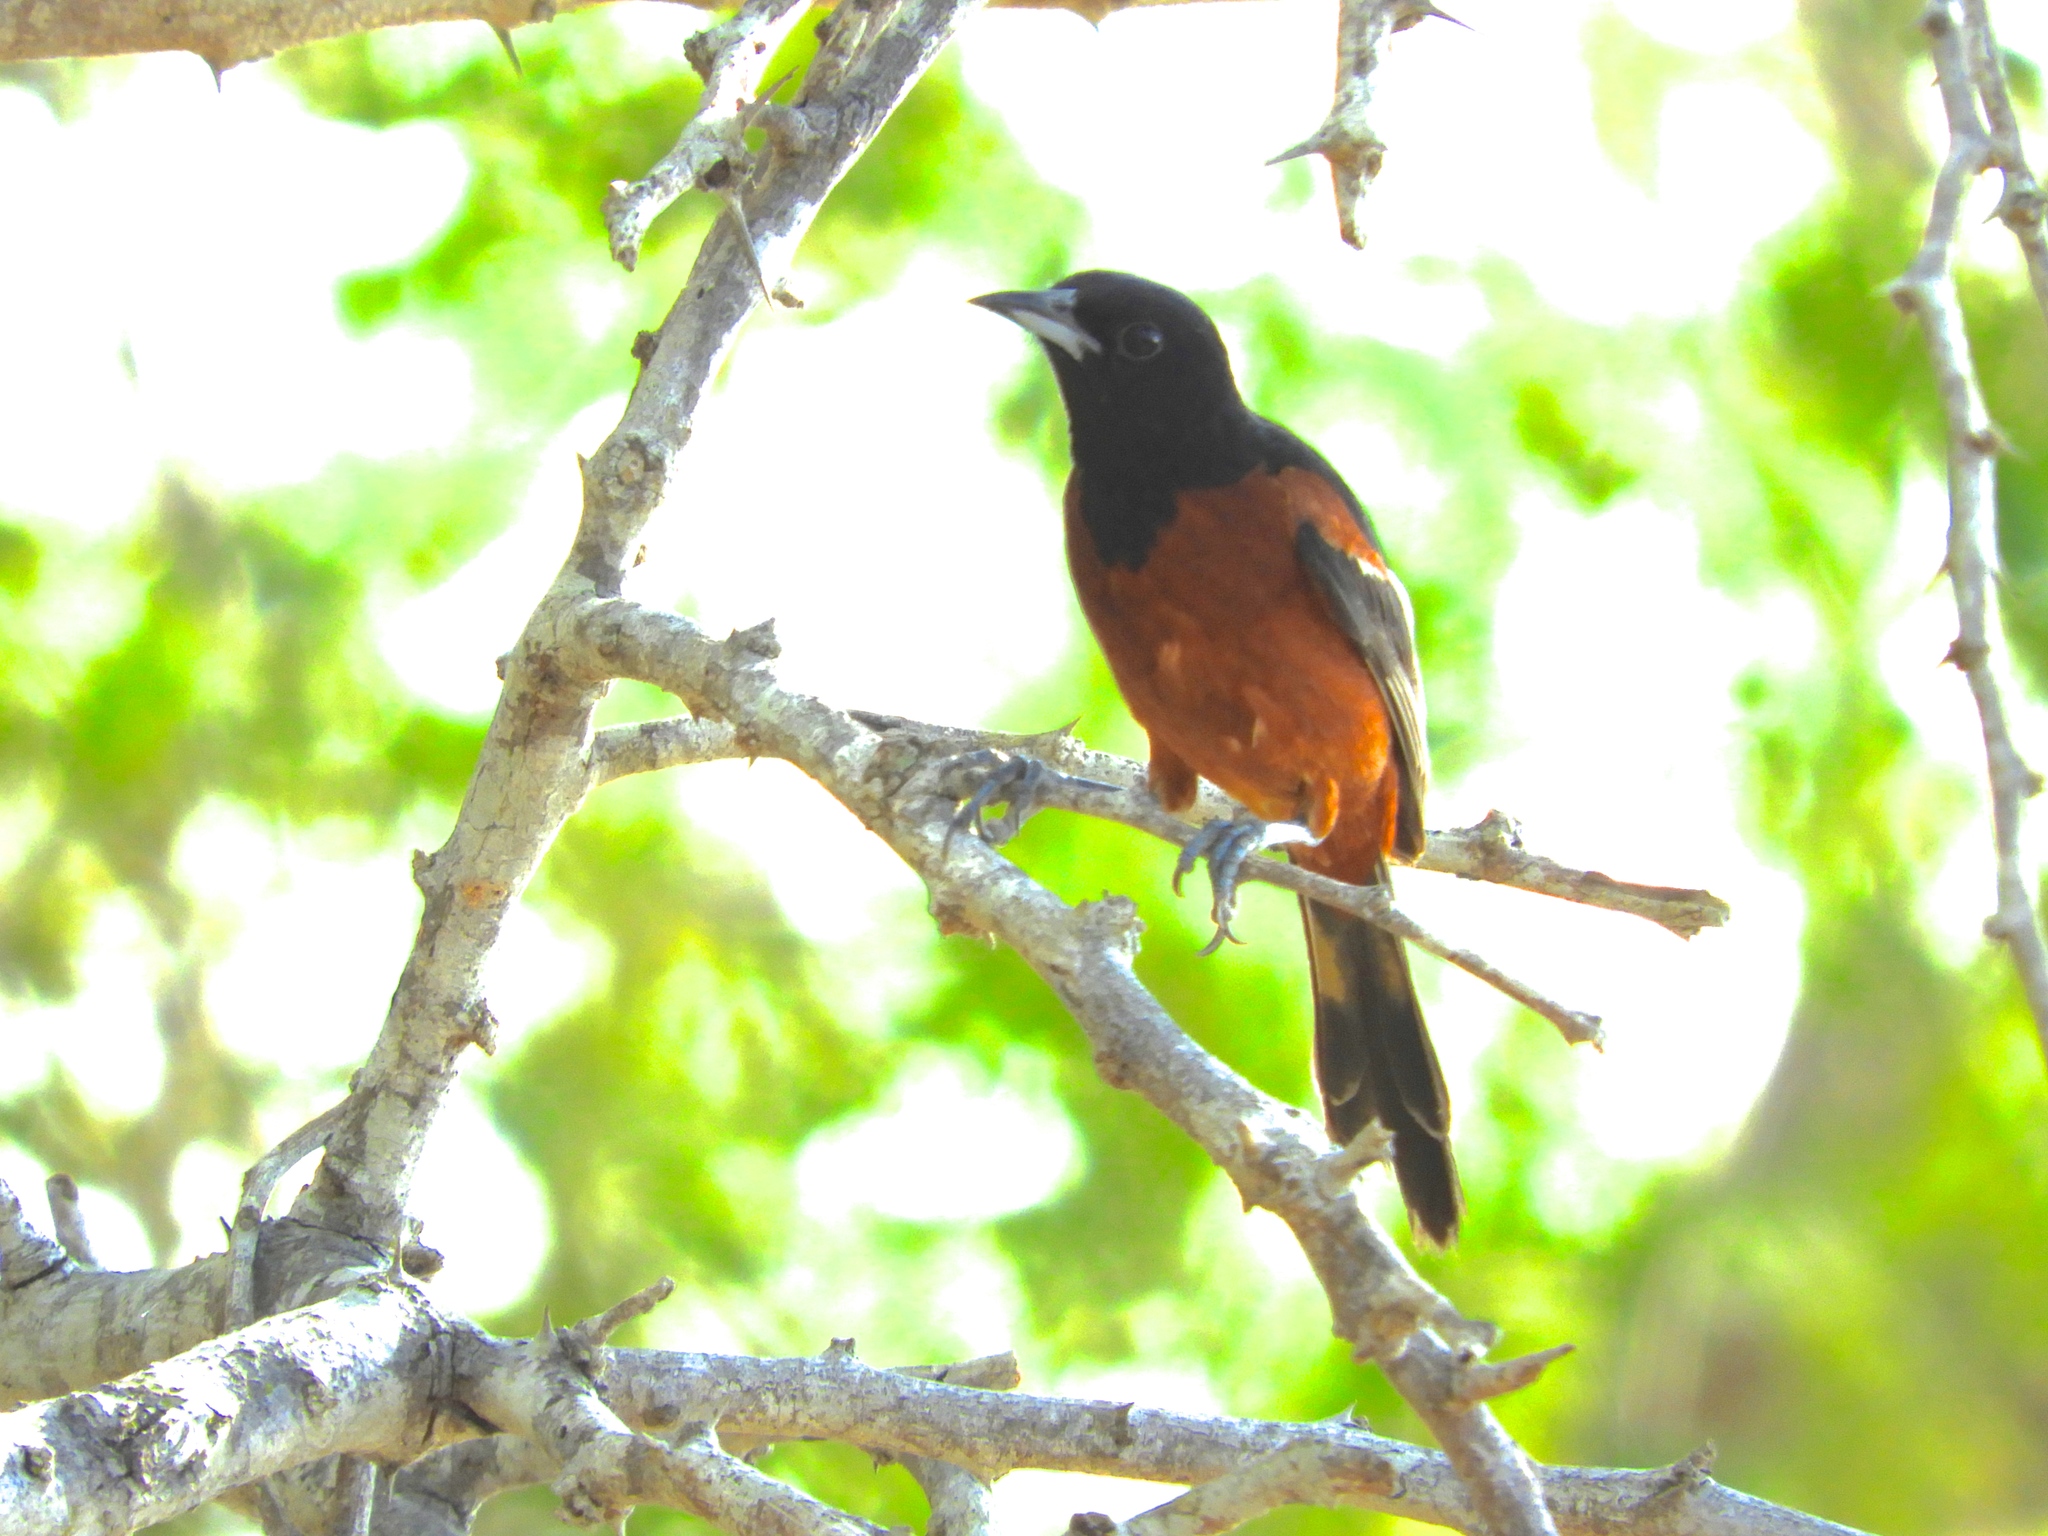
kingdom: Animalia
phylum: Chordata
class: Aves
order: Passeriformes
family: Icteridae
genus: Icterus
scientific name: Icterus spurius
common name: Orchard oriole
